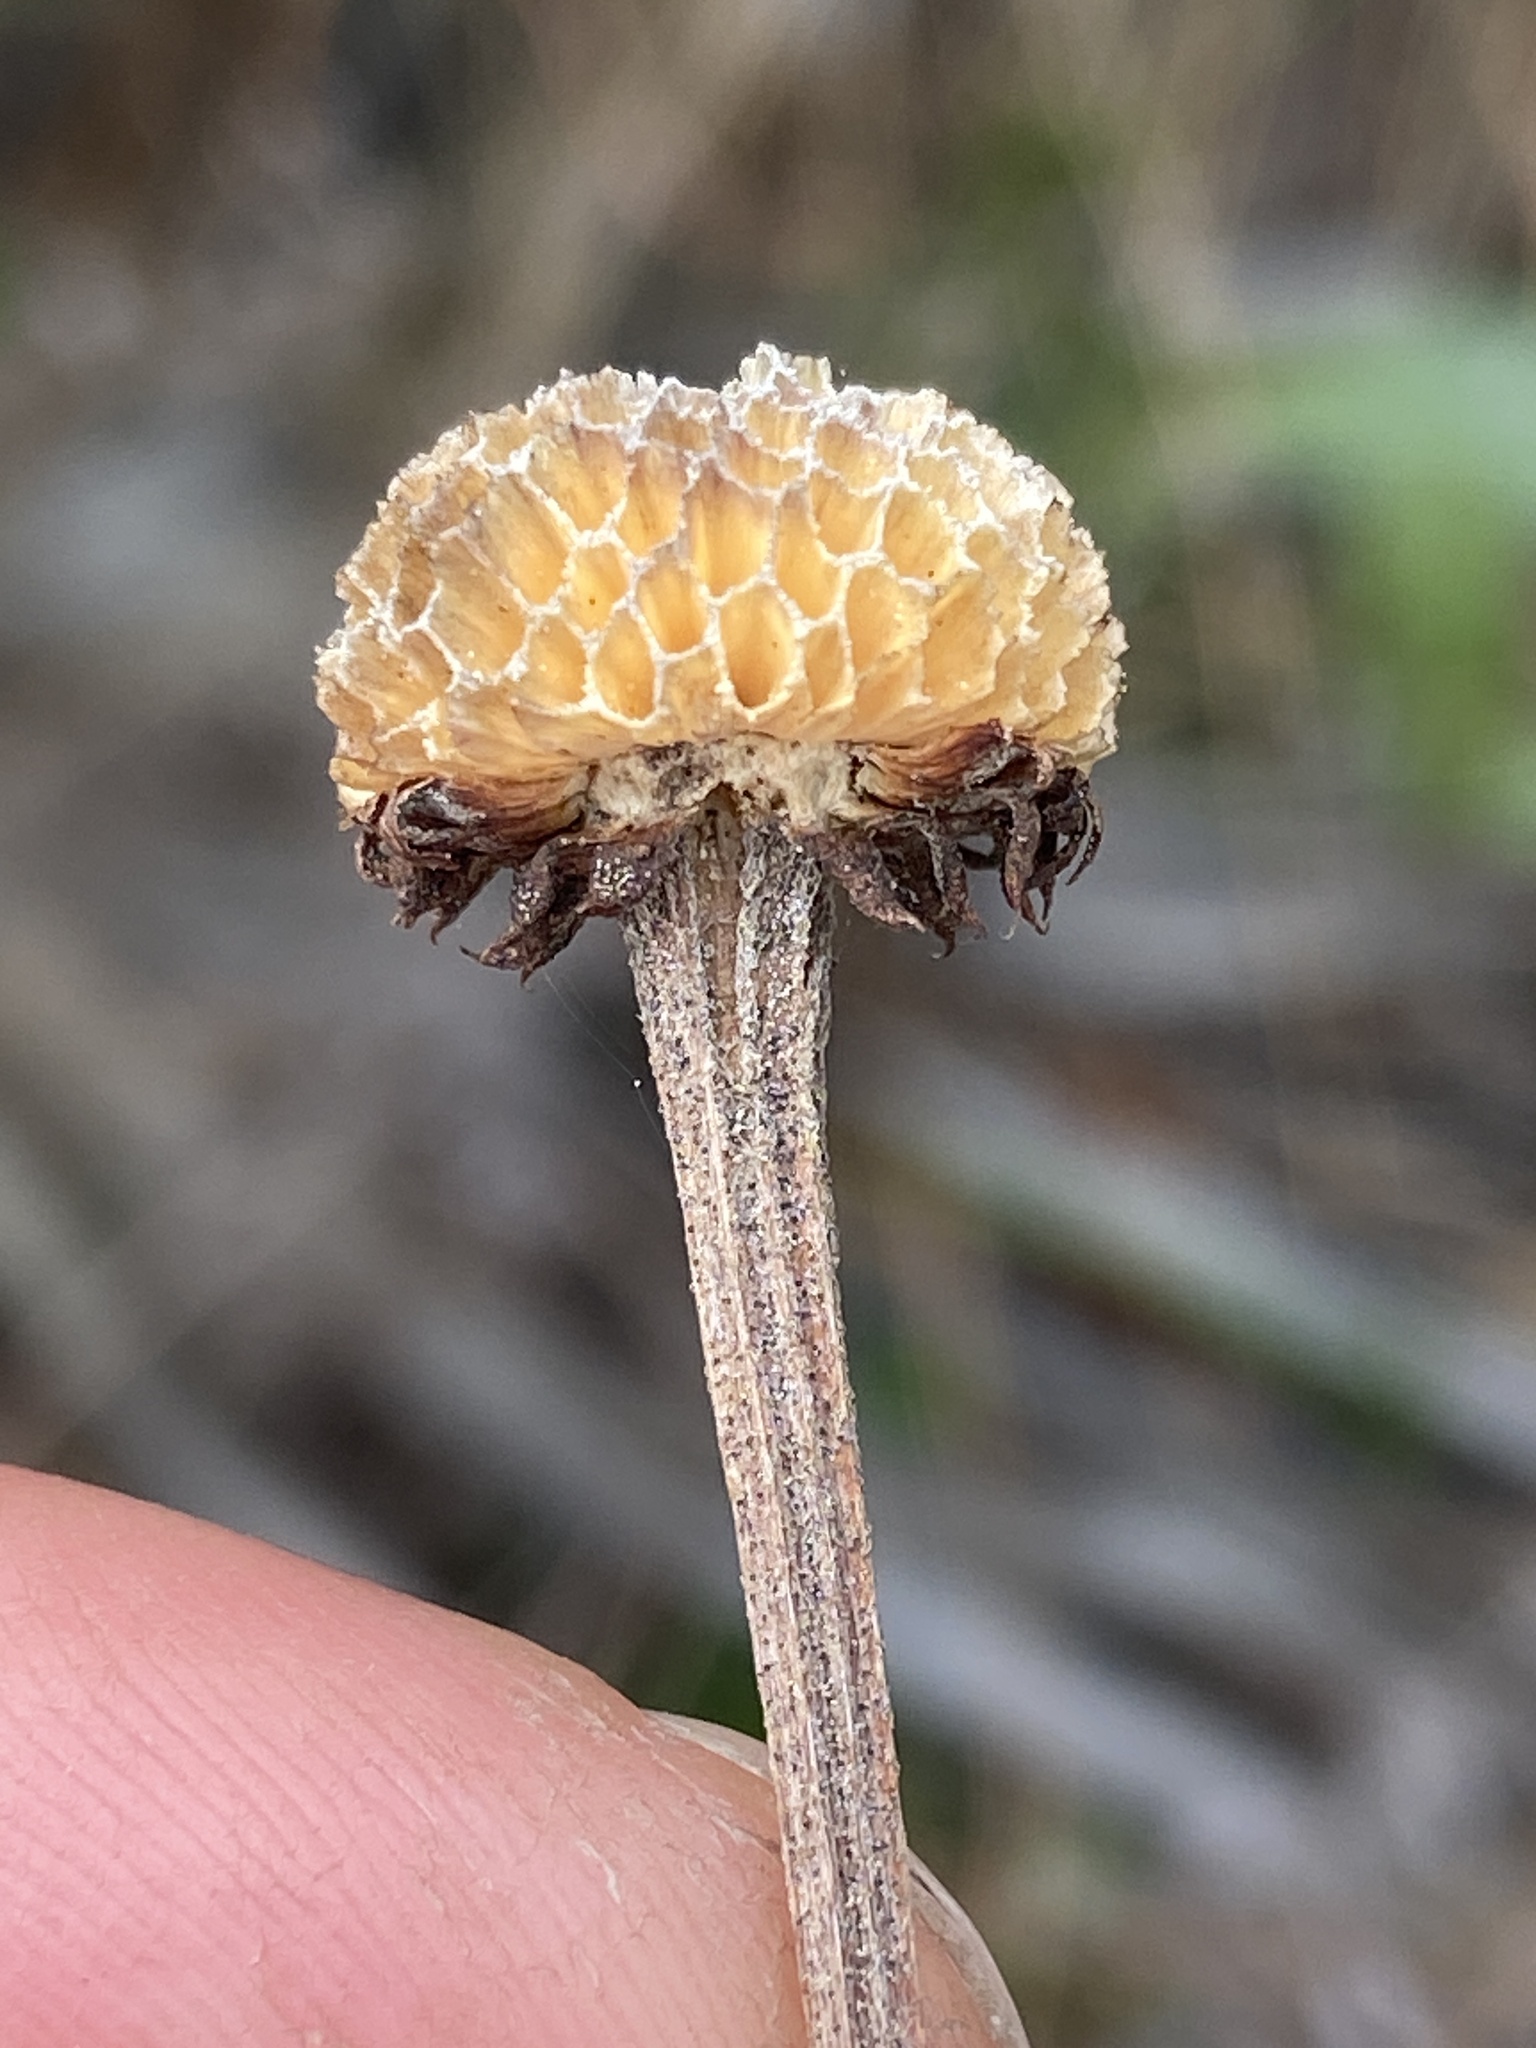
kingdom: Plantae
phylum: Tracheophyta
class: Magnoliopsida
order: Asterales
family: Asteraceae
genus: Balduina
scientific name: Balduina uniflora
